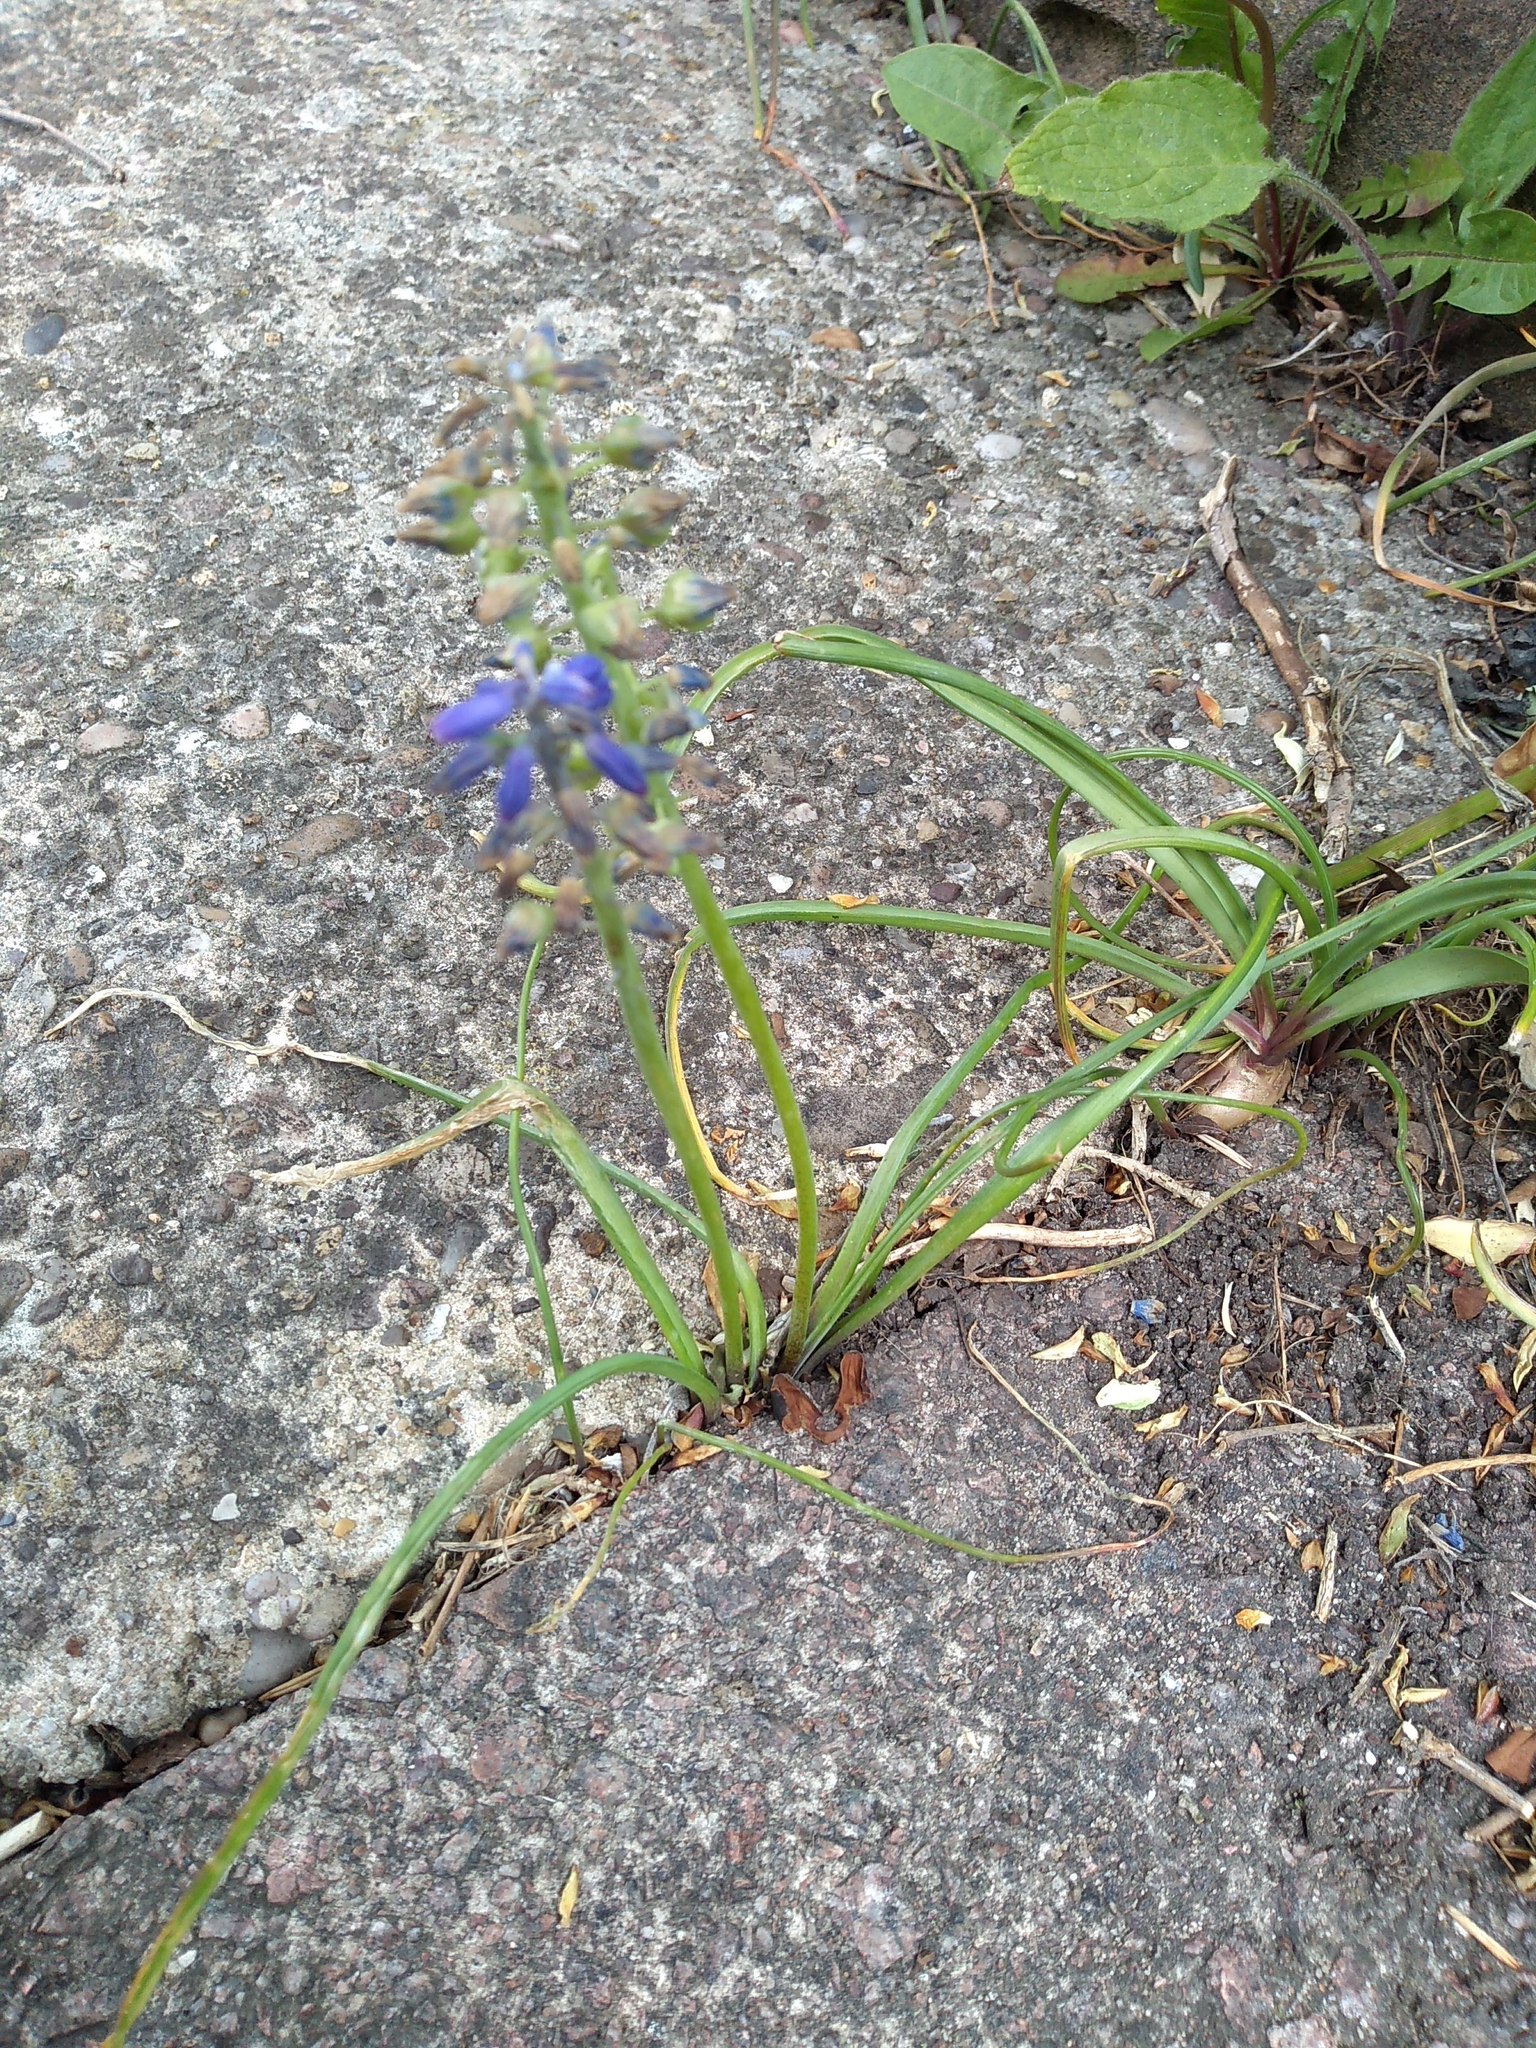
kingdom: Plantae
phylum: Tracheophyta
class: Liliopsida
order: Asparagales
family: Asparagaceae
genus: Muscari
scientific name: Muscari armeniacum
